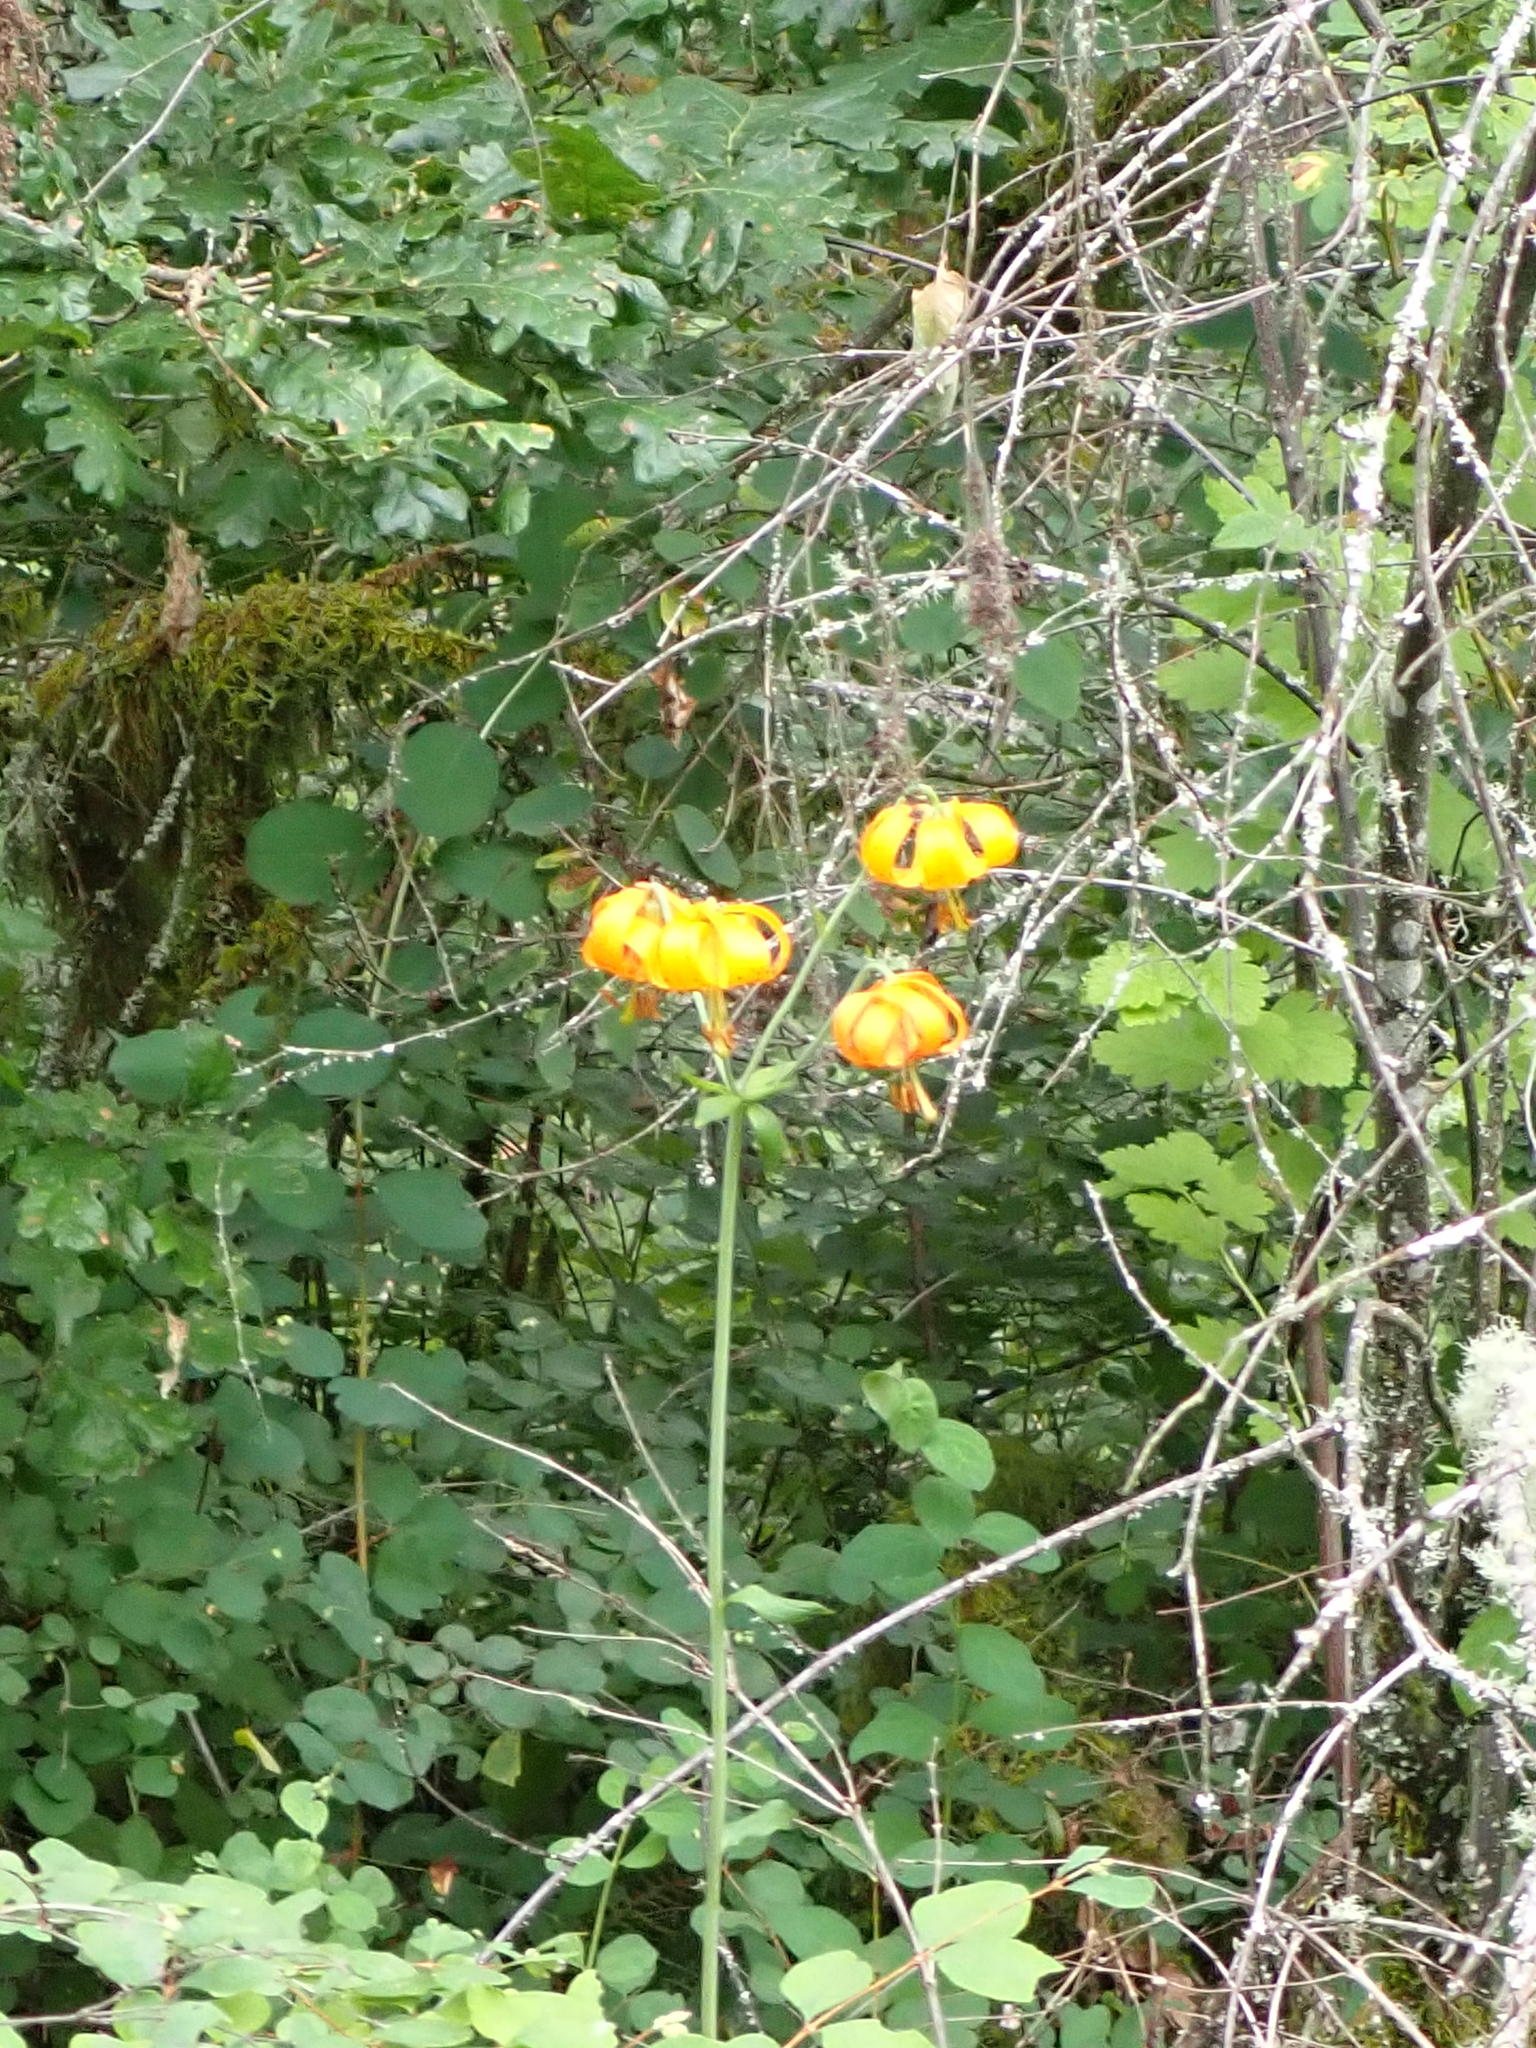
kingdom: Plantae
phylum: Tracheophyta
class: Liliopsida
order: Liliales
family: Liliaceae
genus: Lilium
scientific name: Lilium columbianum
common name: Columbia lily
